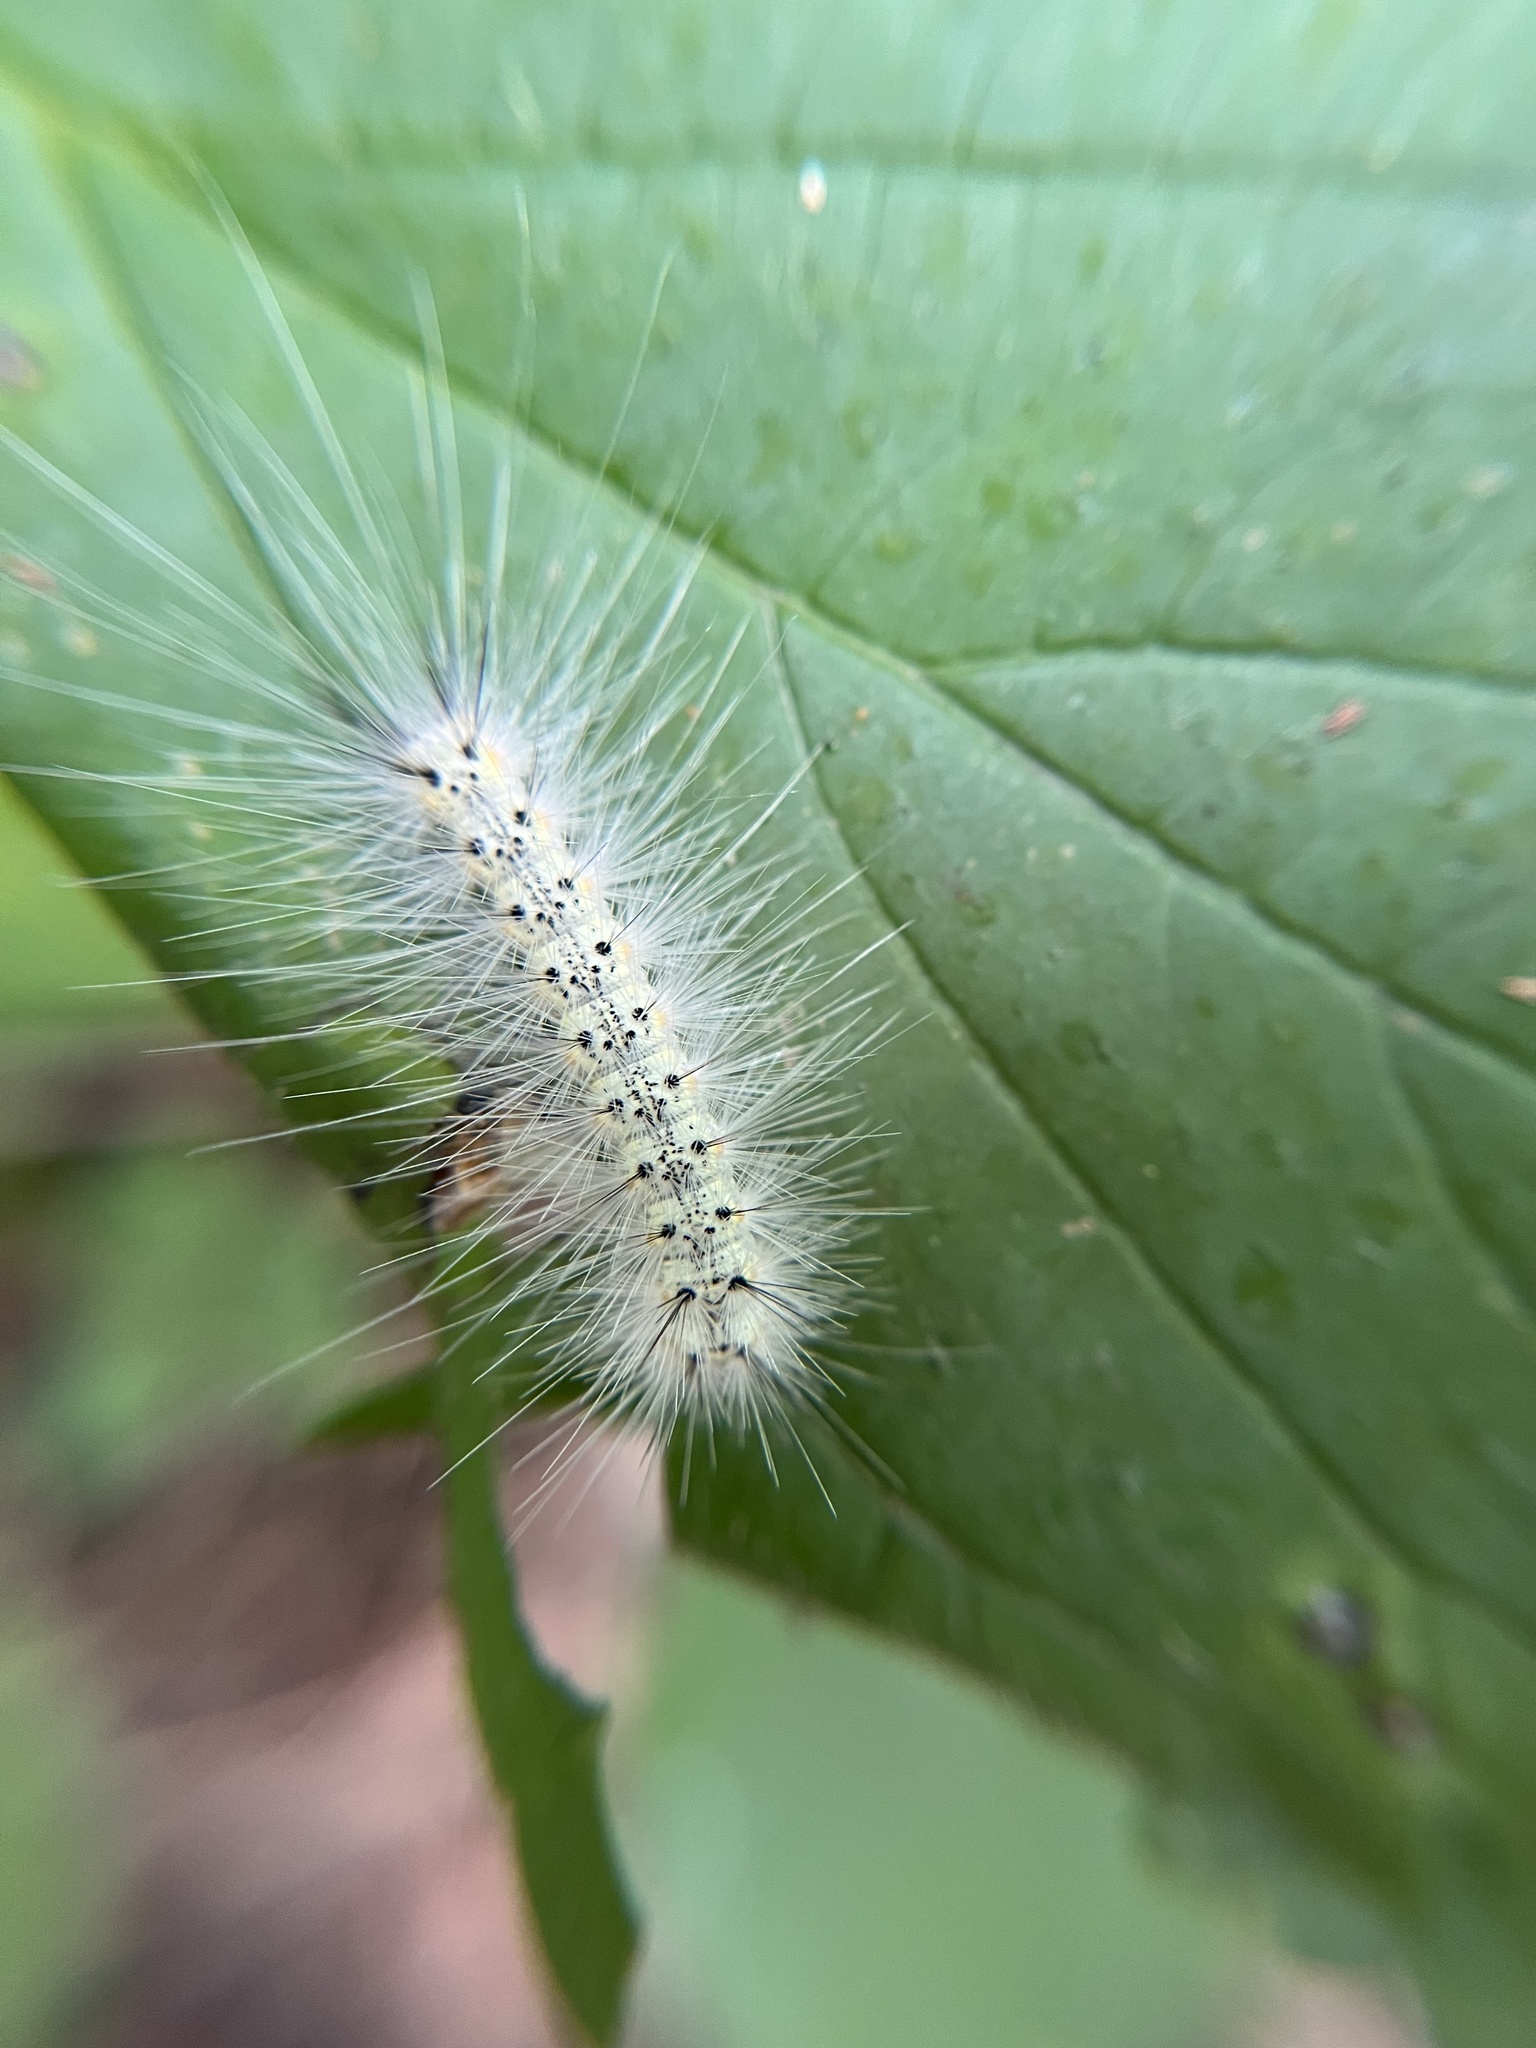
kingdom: Animalia
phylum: Arthropoda
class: Insecta
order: Lepidoptera
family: Erebidae
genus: Hyphantria
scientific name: Hyphantria cunea
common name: American white moth
